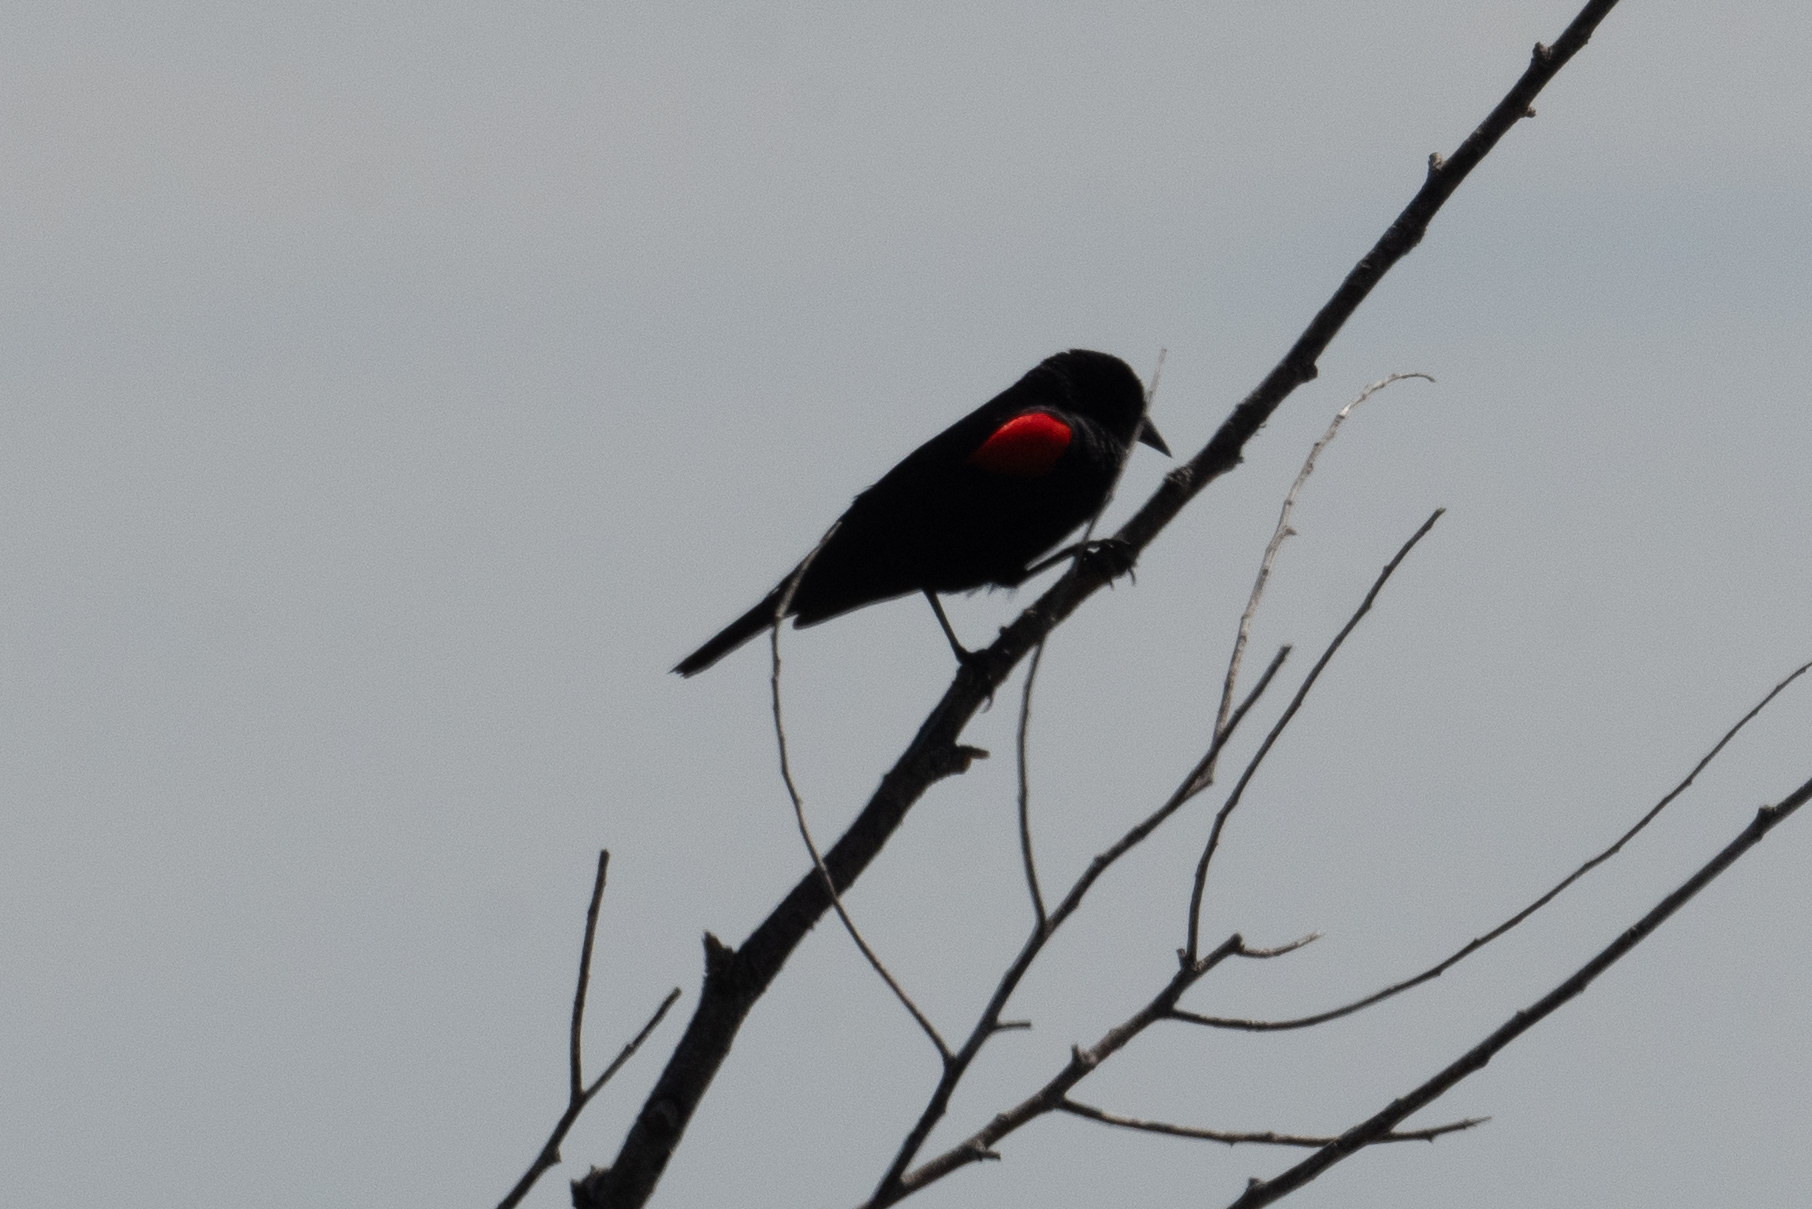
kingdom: Animalia
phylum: Chordata
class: Aves
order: Passeriformes
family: Icteridae
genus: Agelaius
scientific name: Agelaius phoeniceus
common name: Red-winged blackbird
